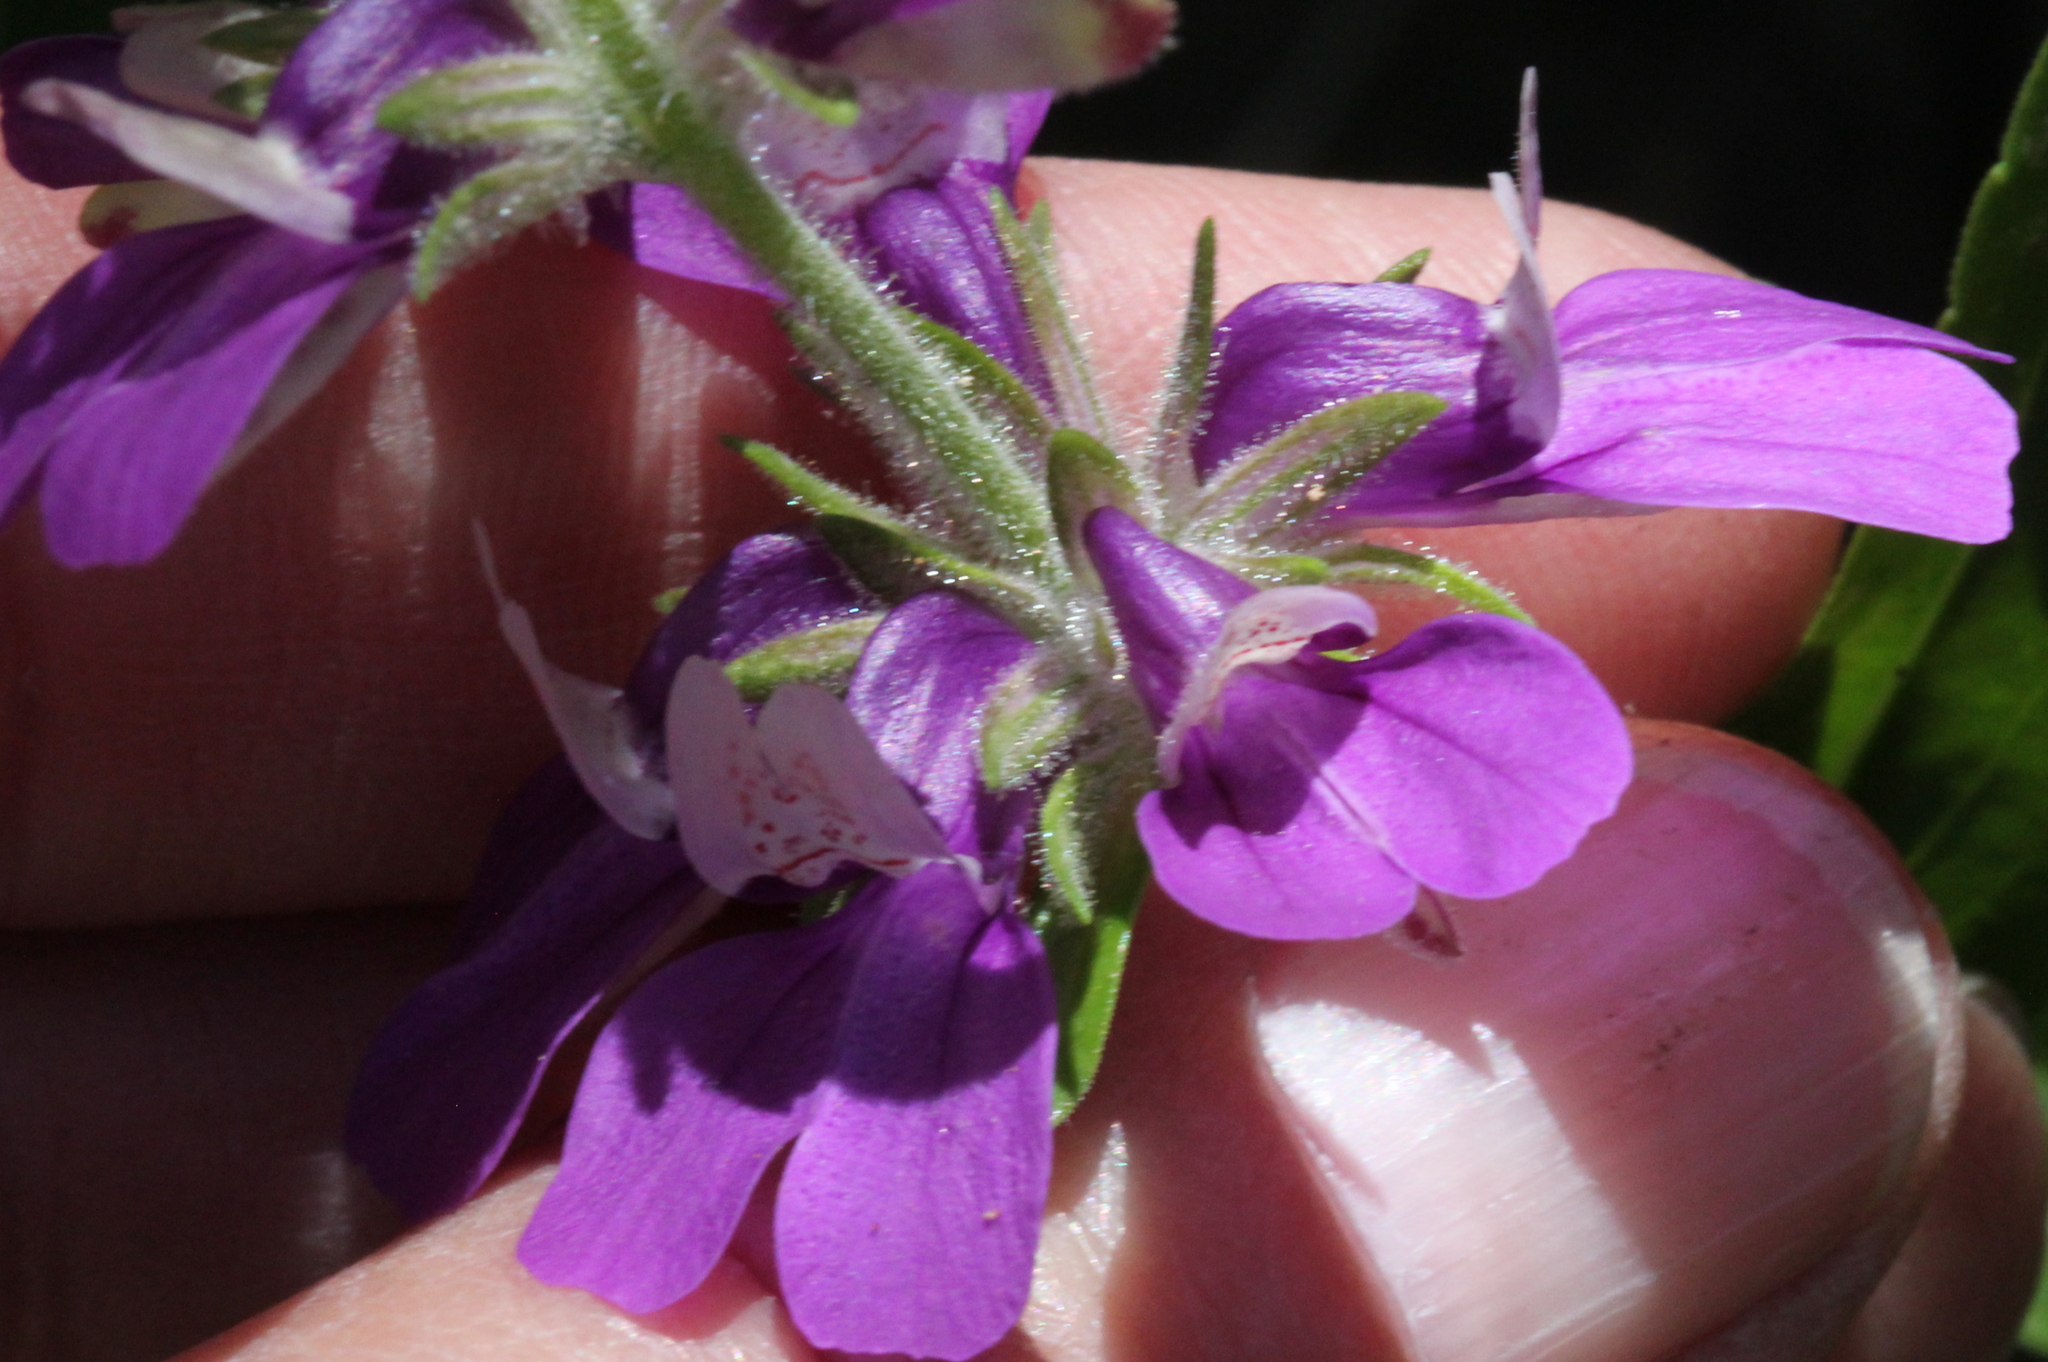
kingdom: Plantae
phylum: Tracheophyta
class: Magnoliopsida
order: Lamiales
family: Plantaginaceae
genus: Collinsia
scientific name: Collinsia concolor
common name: Chinese houses
